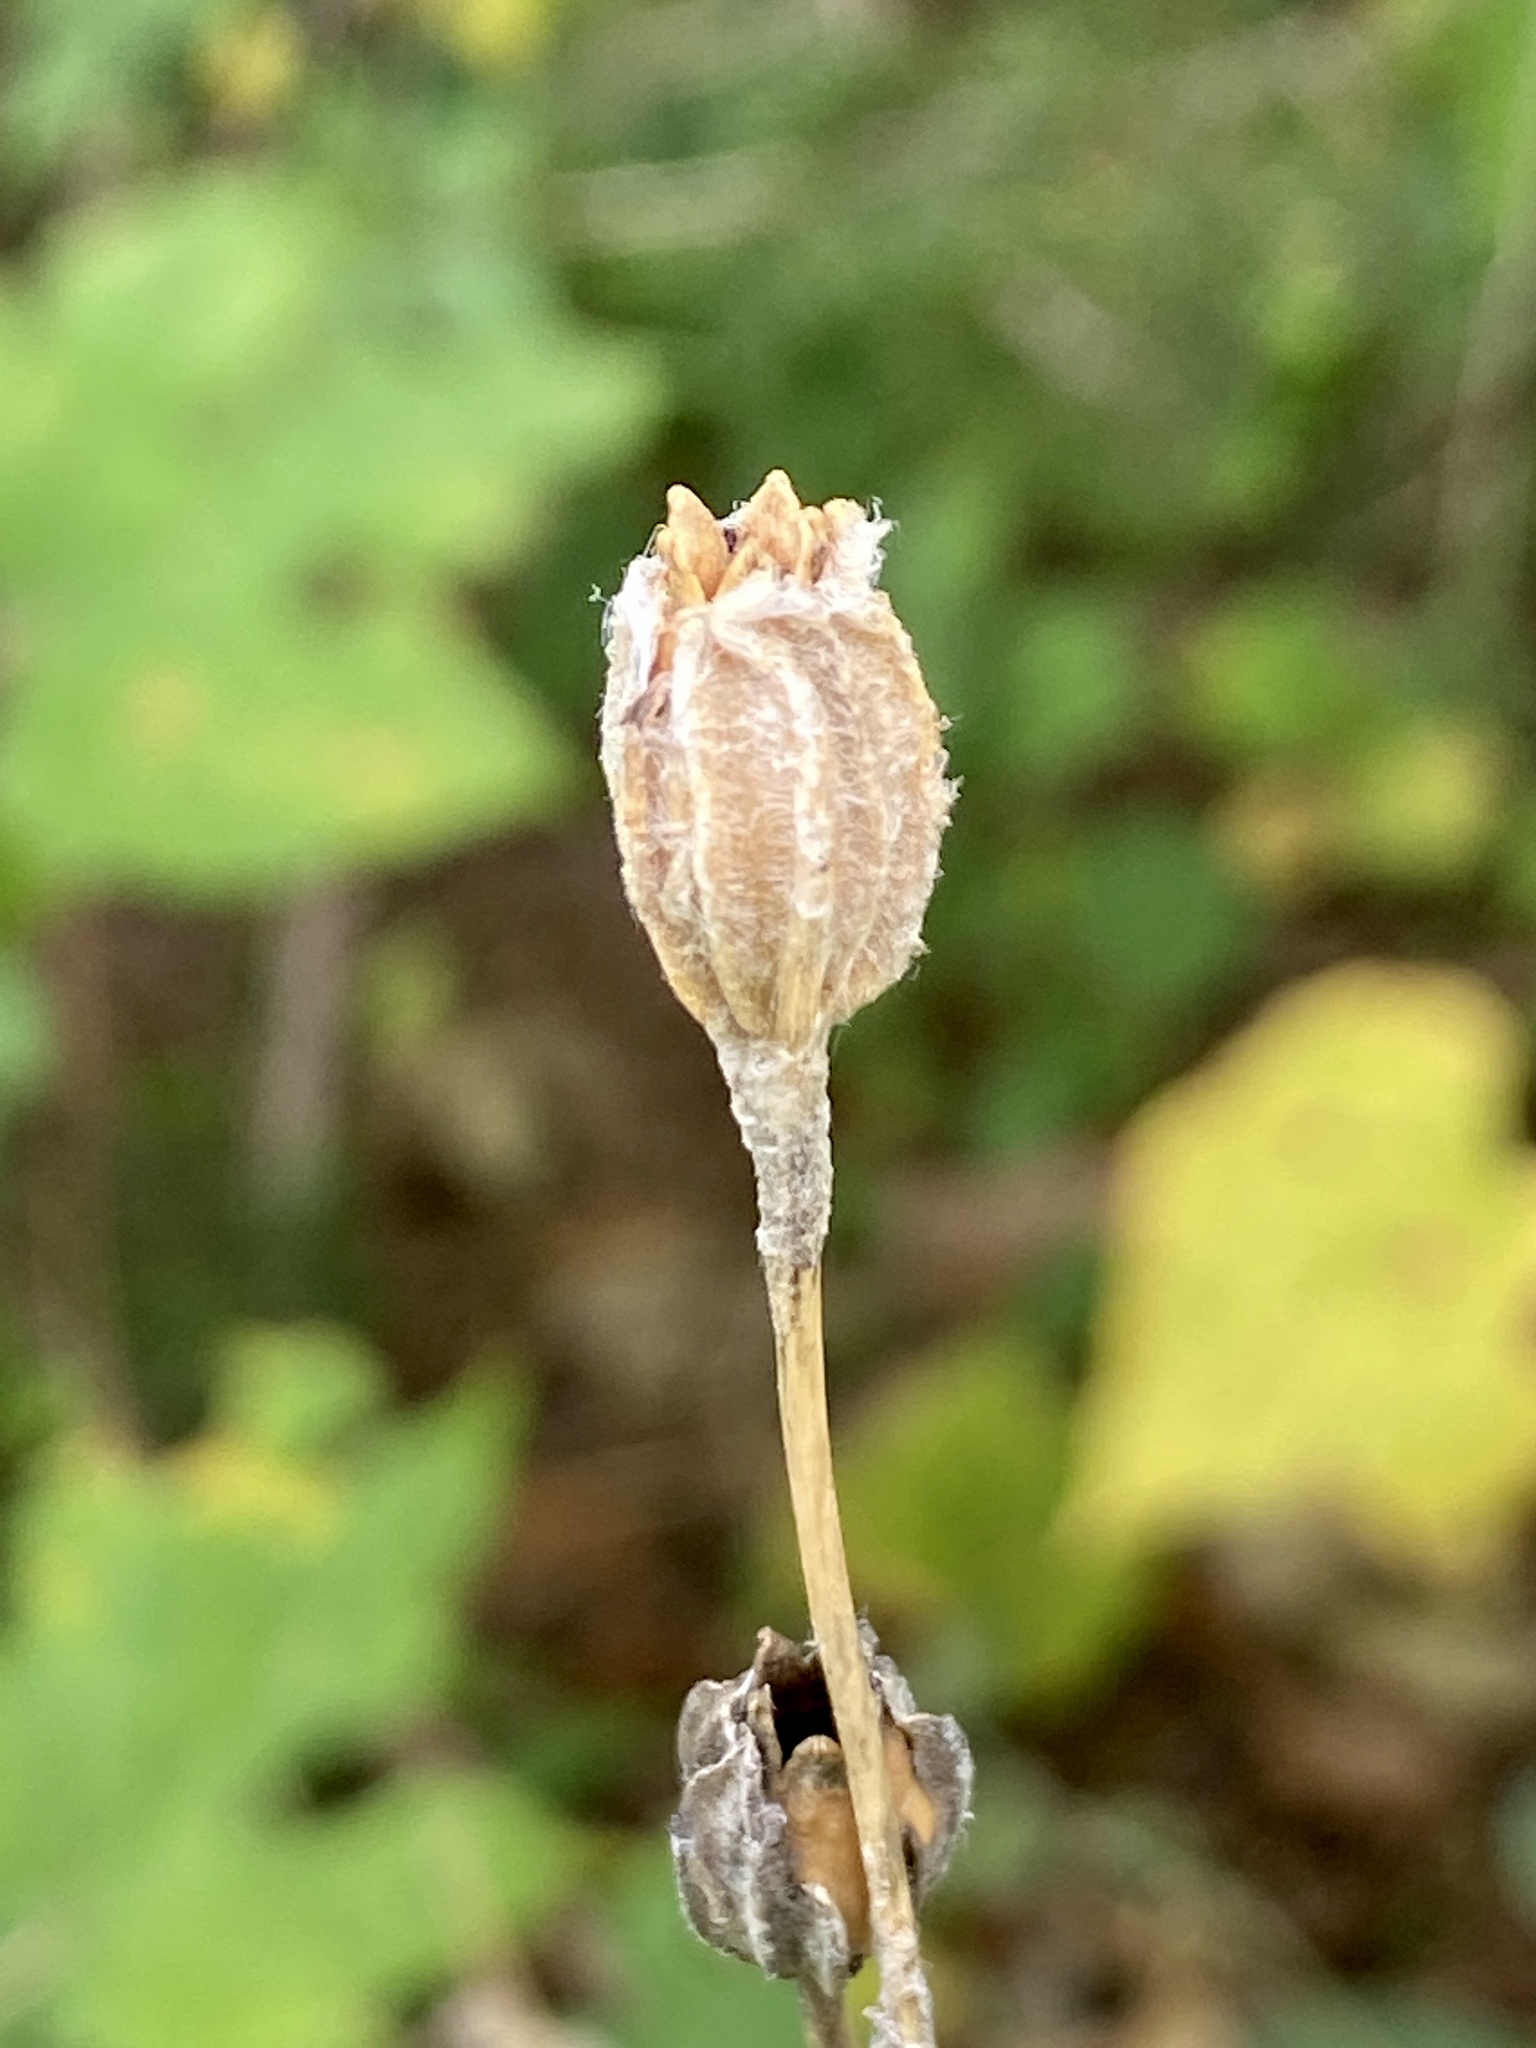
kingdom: Plantae
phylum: Tracheophyta
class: Magnoliopsida
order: Caryophyllales
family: Caryophyllaceae
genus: Silene
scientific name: Silene coronaria
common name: Rose campion
